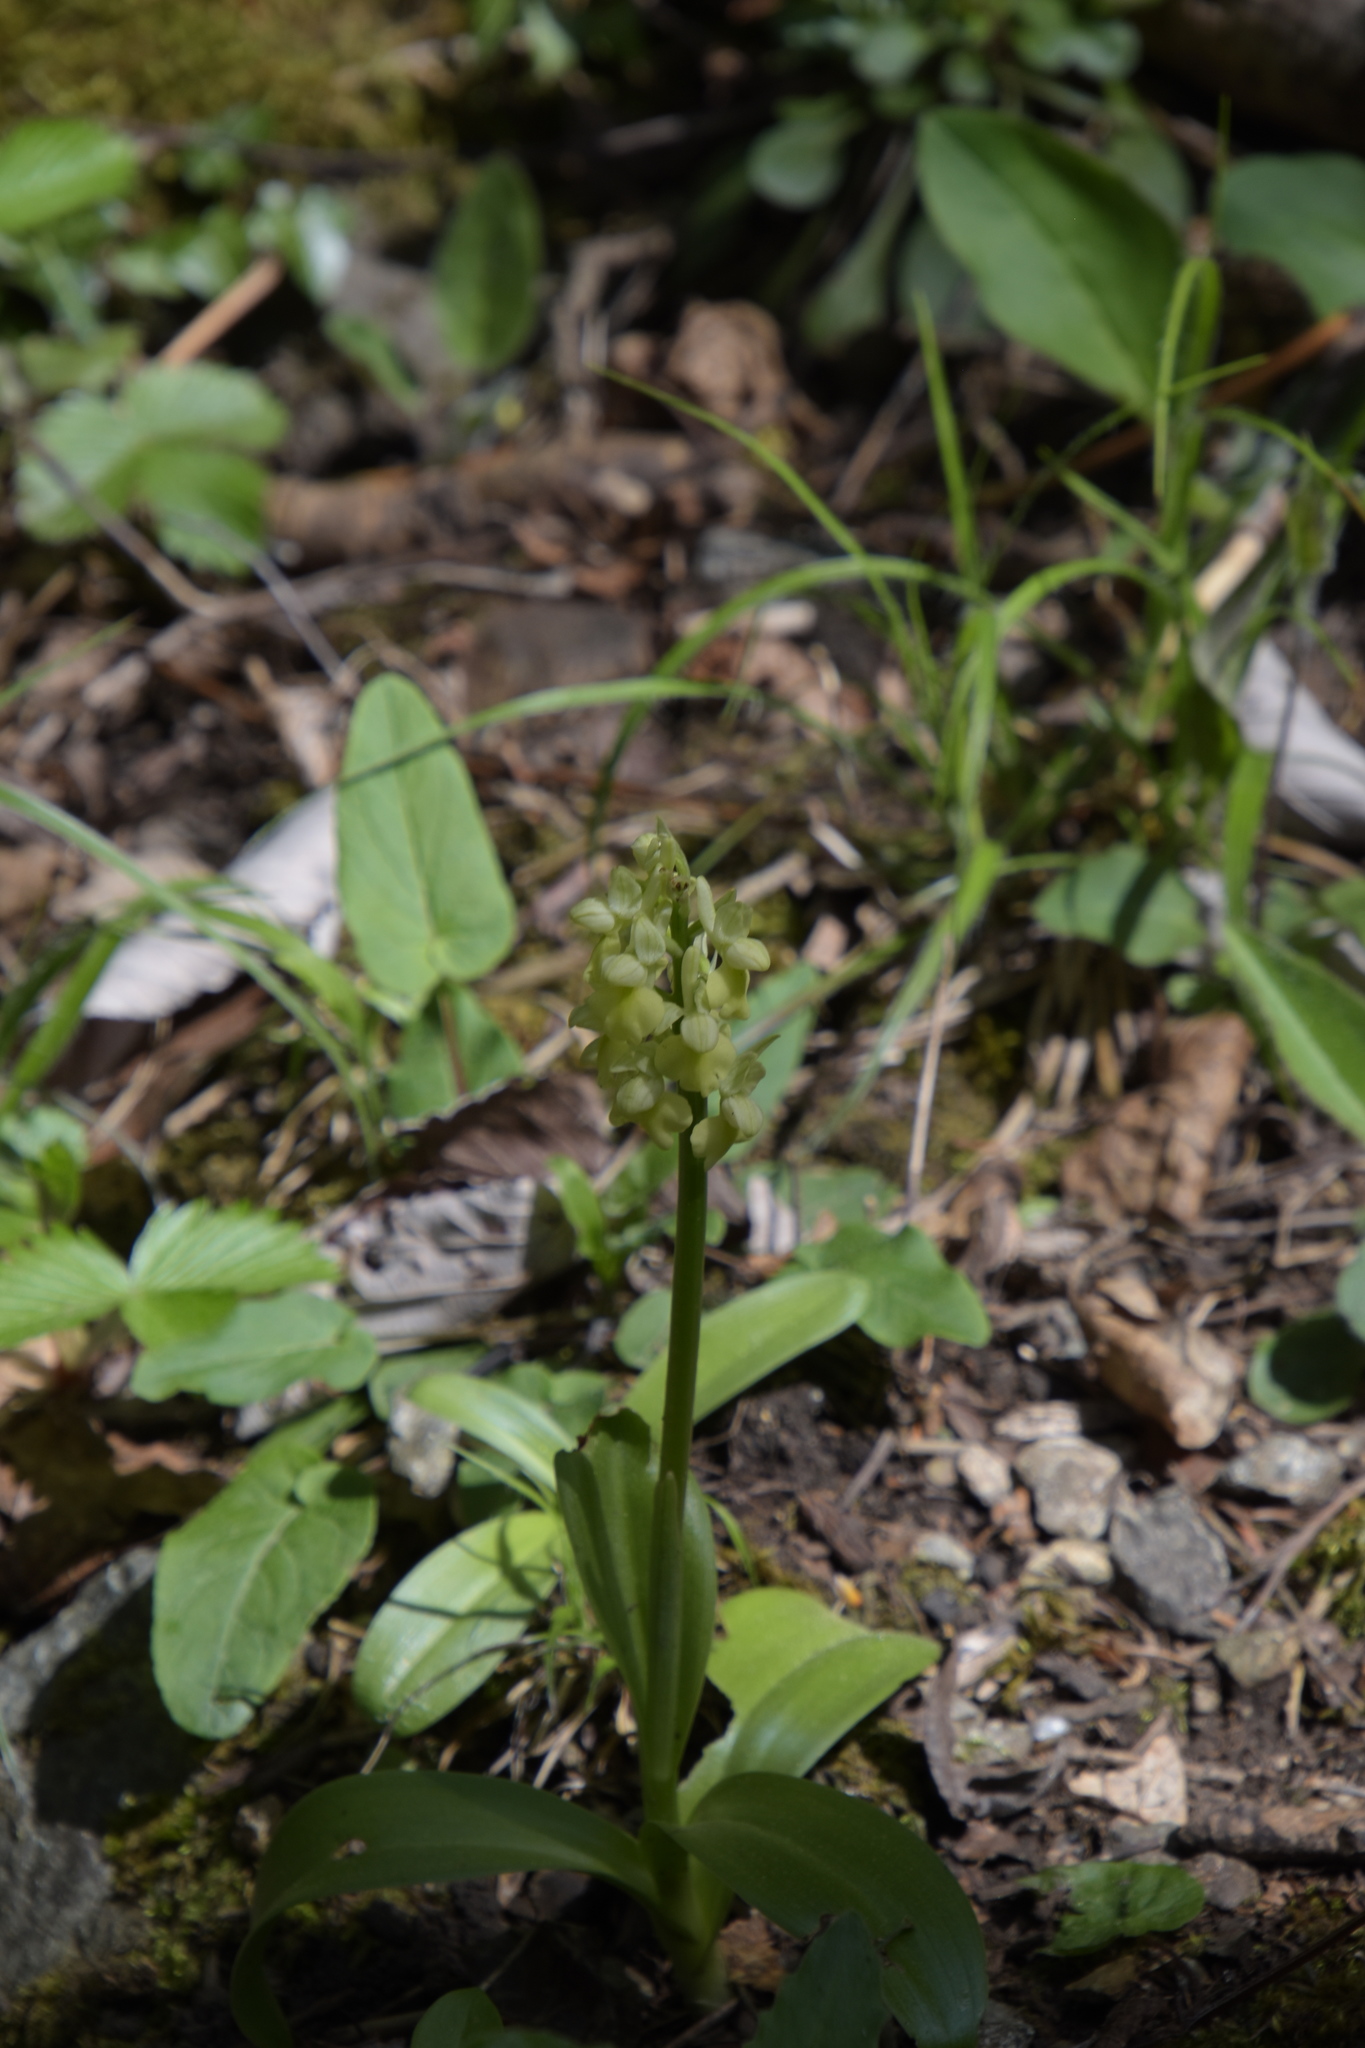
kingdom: Plantae
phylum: Tracheophyta
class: Liliopsida
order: Asparagales
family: Orchidaceae
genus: Orchis
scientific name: Orchis pallens
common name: Pale-flowered orchid
